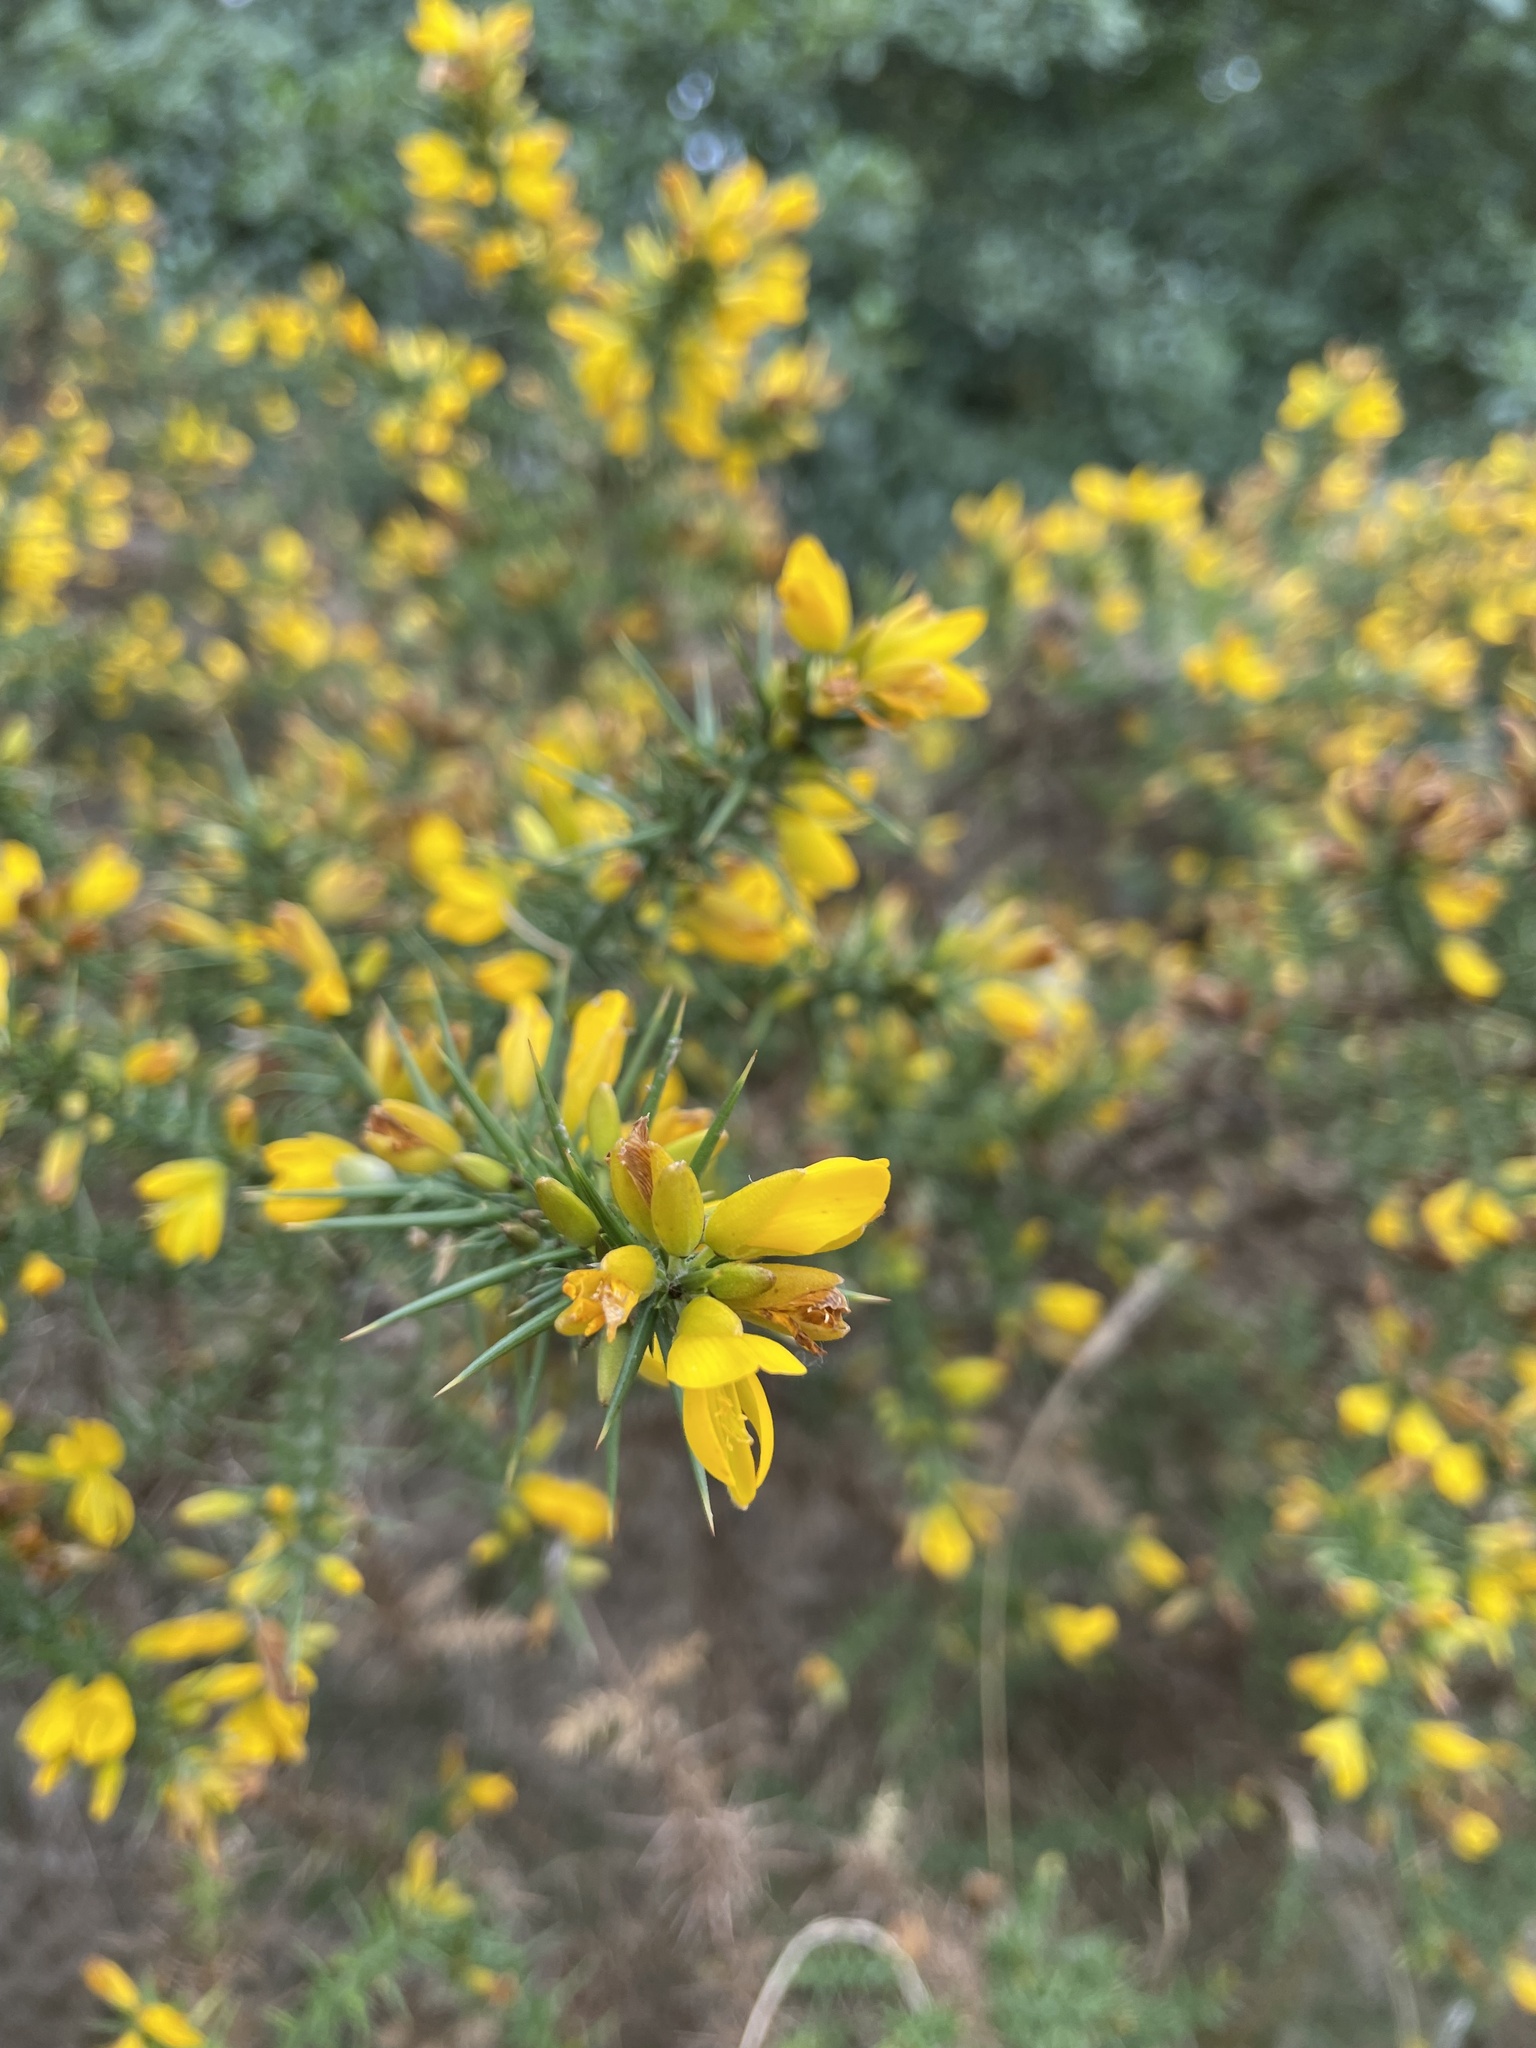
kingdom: Plantae
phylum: Tracheophyta
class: Magnoliopsida
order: Fabales
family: Fabaceae
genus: Ulex
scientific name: Ulex europaeus
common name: Common gorse
